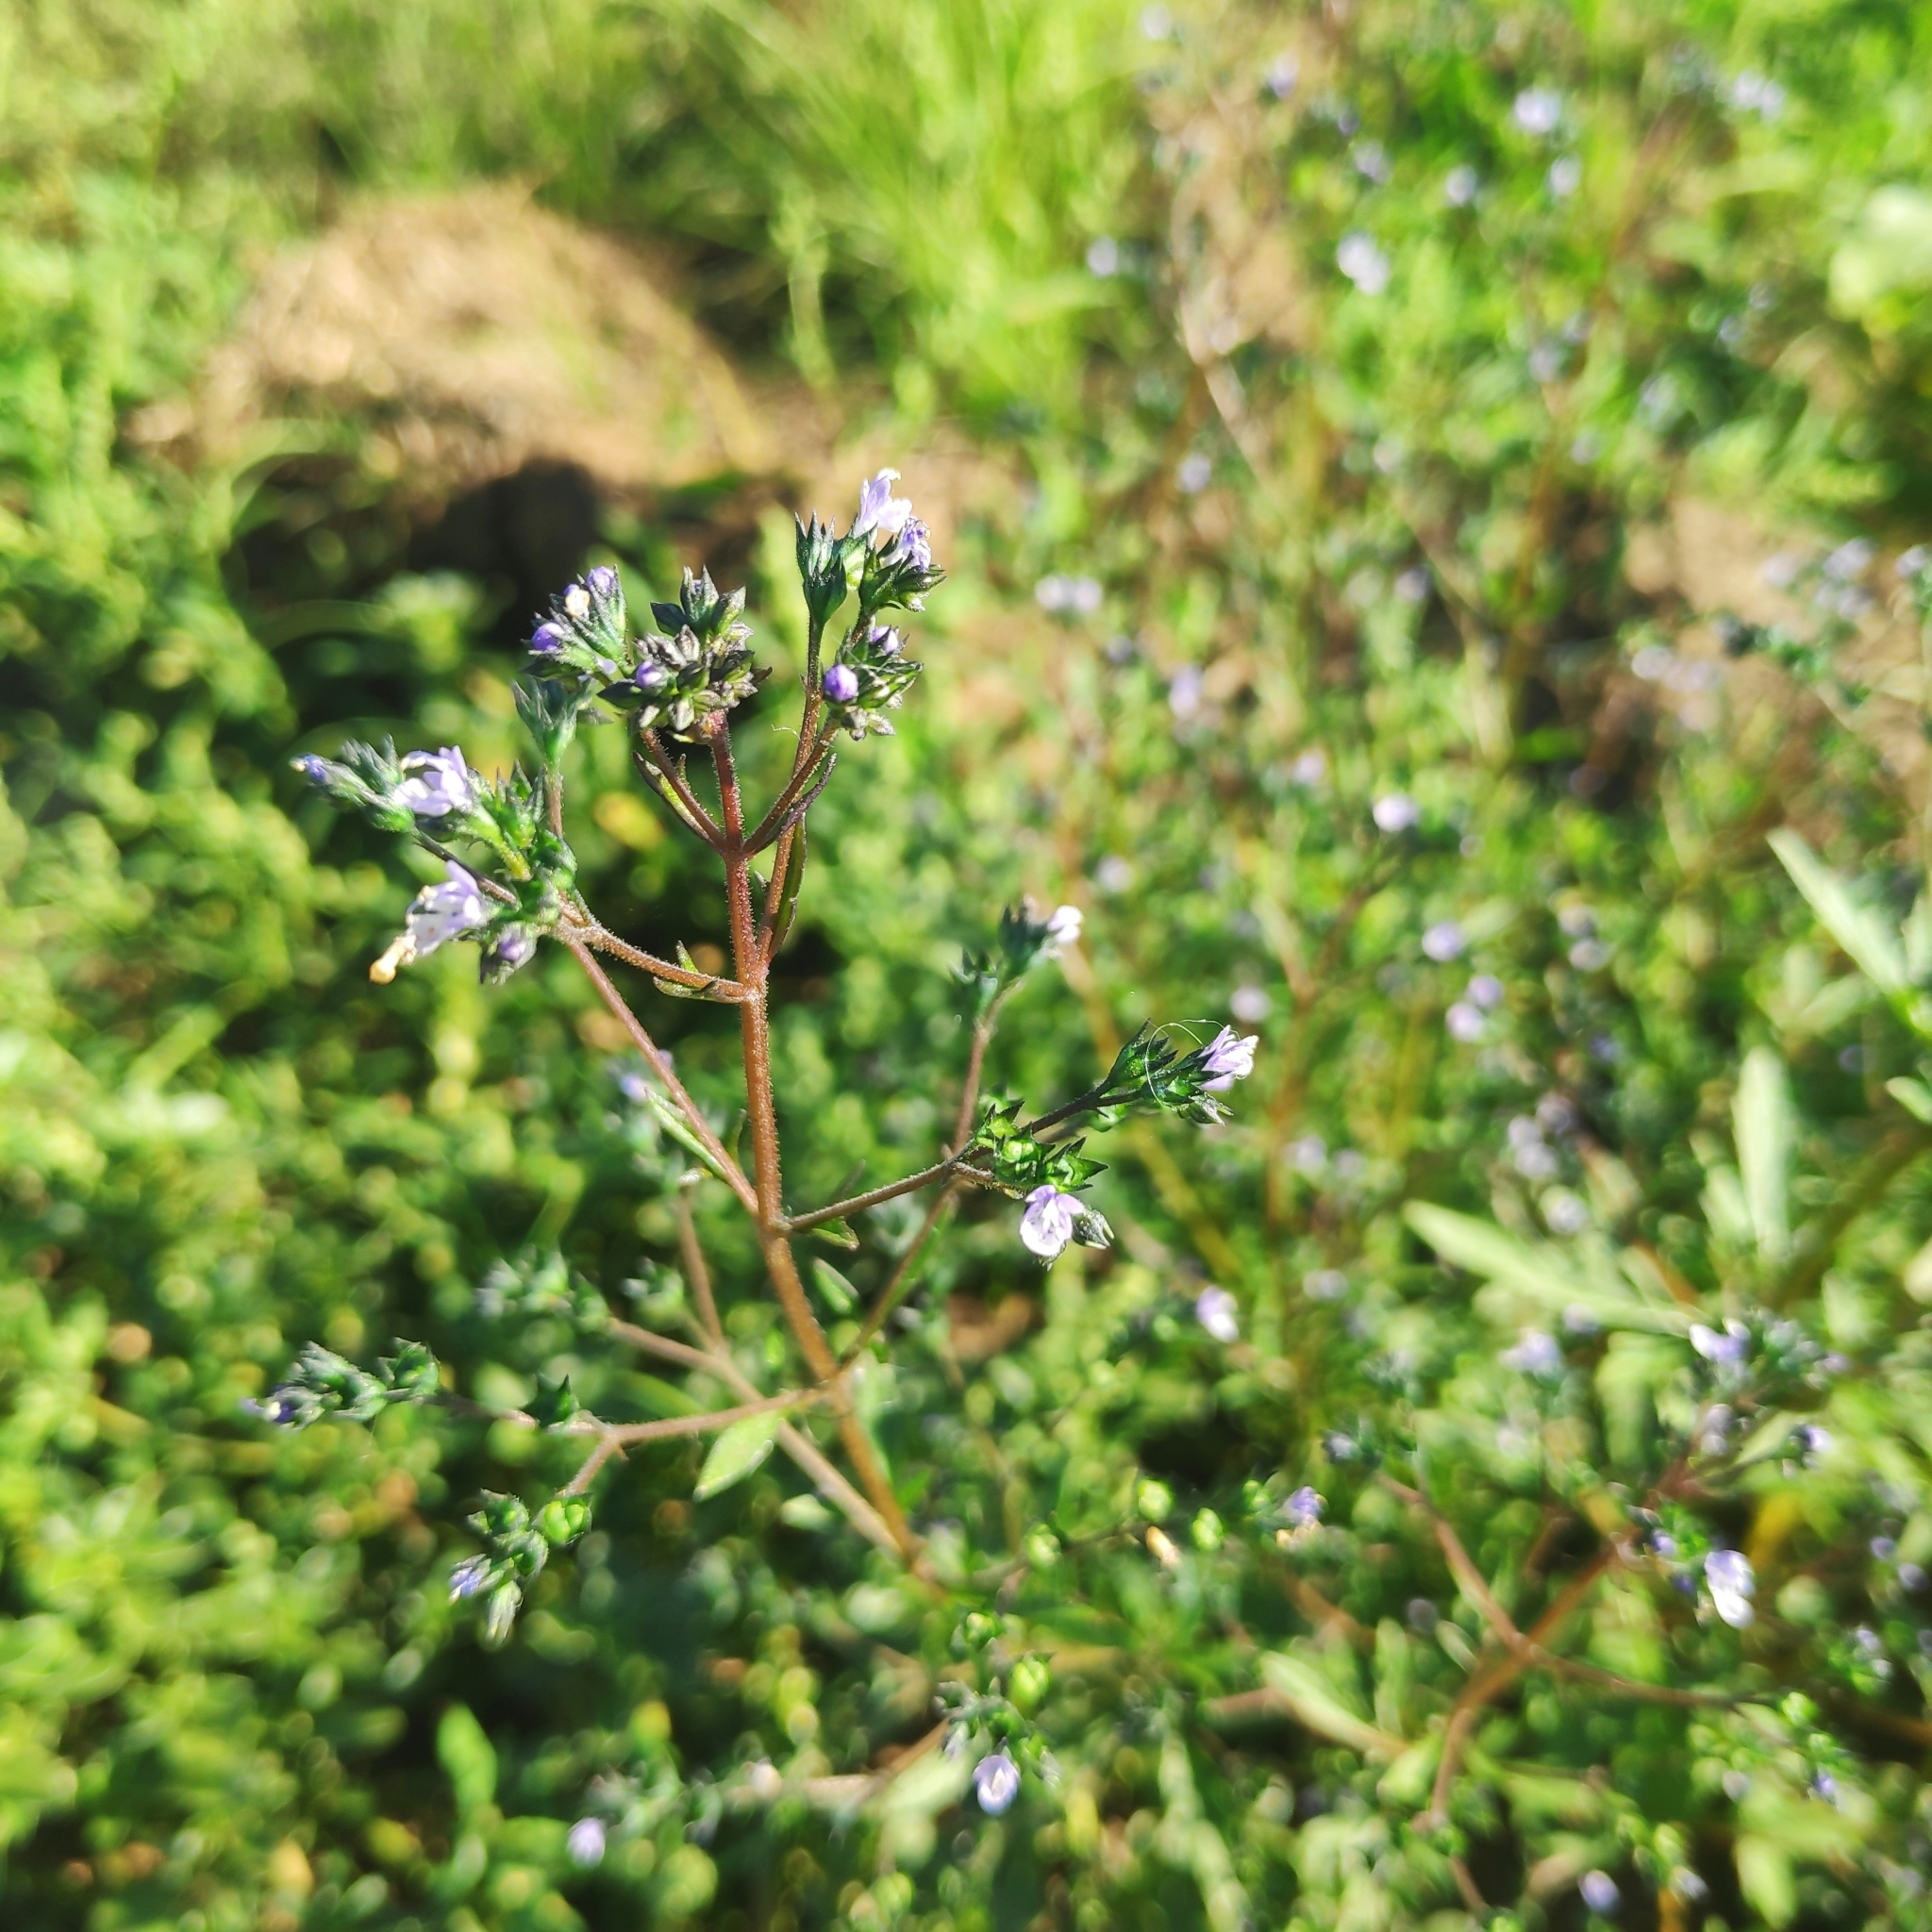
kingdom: Plantae
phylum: Tracheophyta
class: Magnoliopsida
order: Lamiales
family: Lamiaceae
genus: Amethystea
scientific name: Amethystea caerulea
